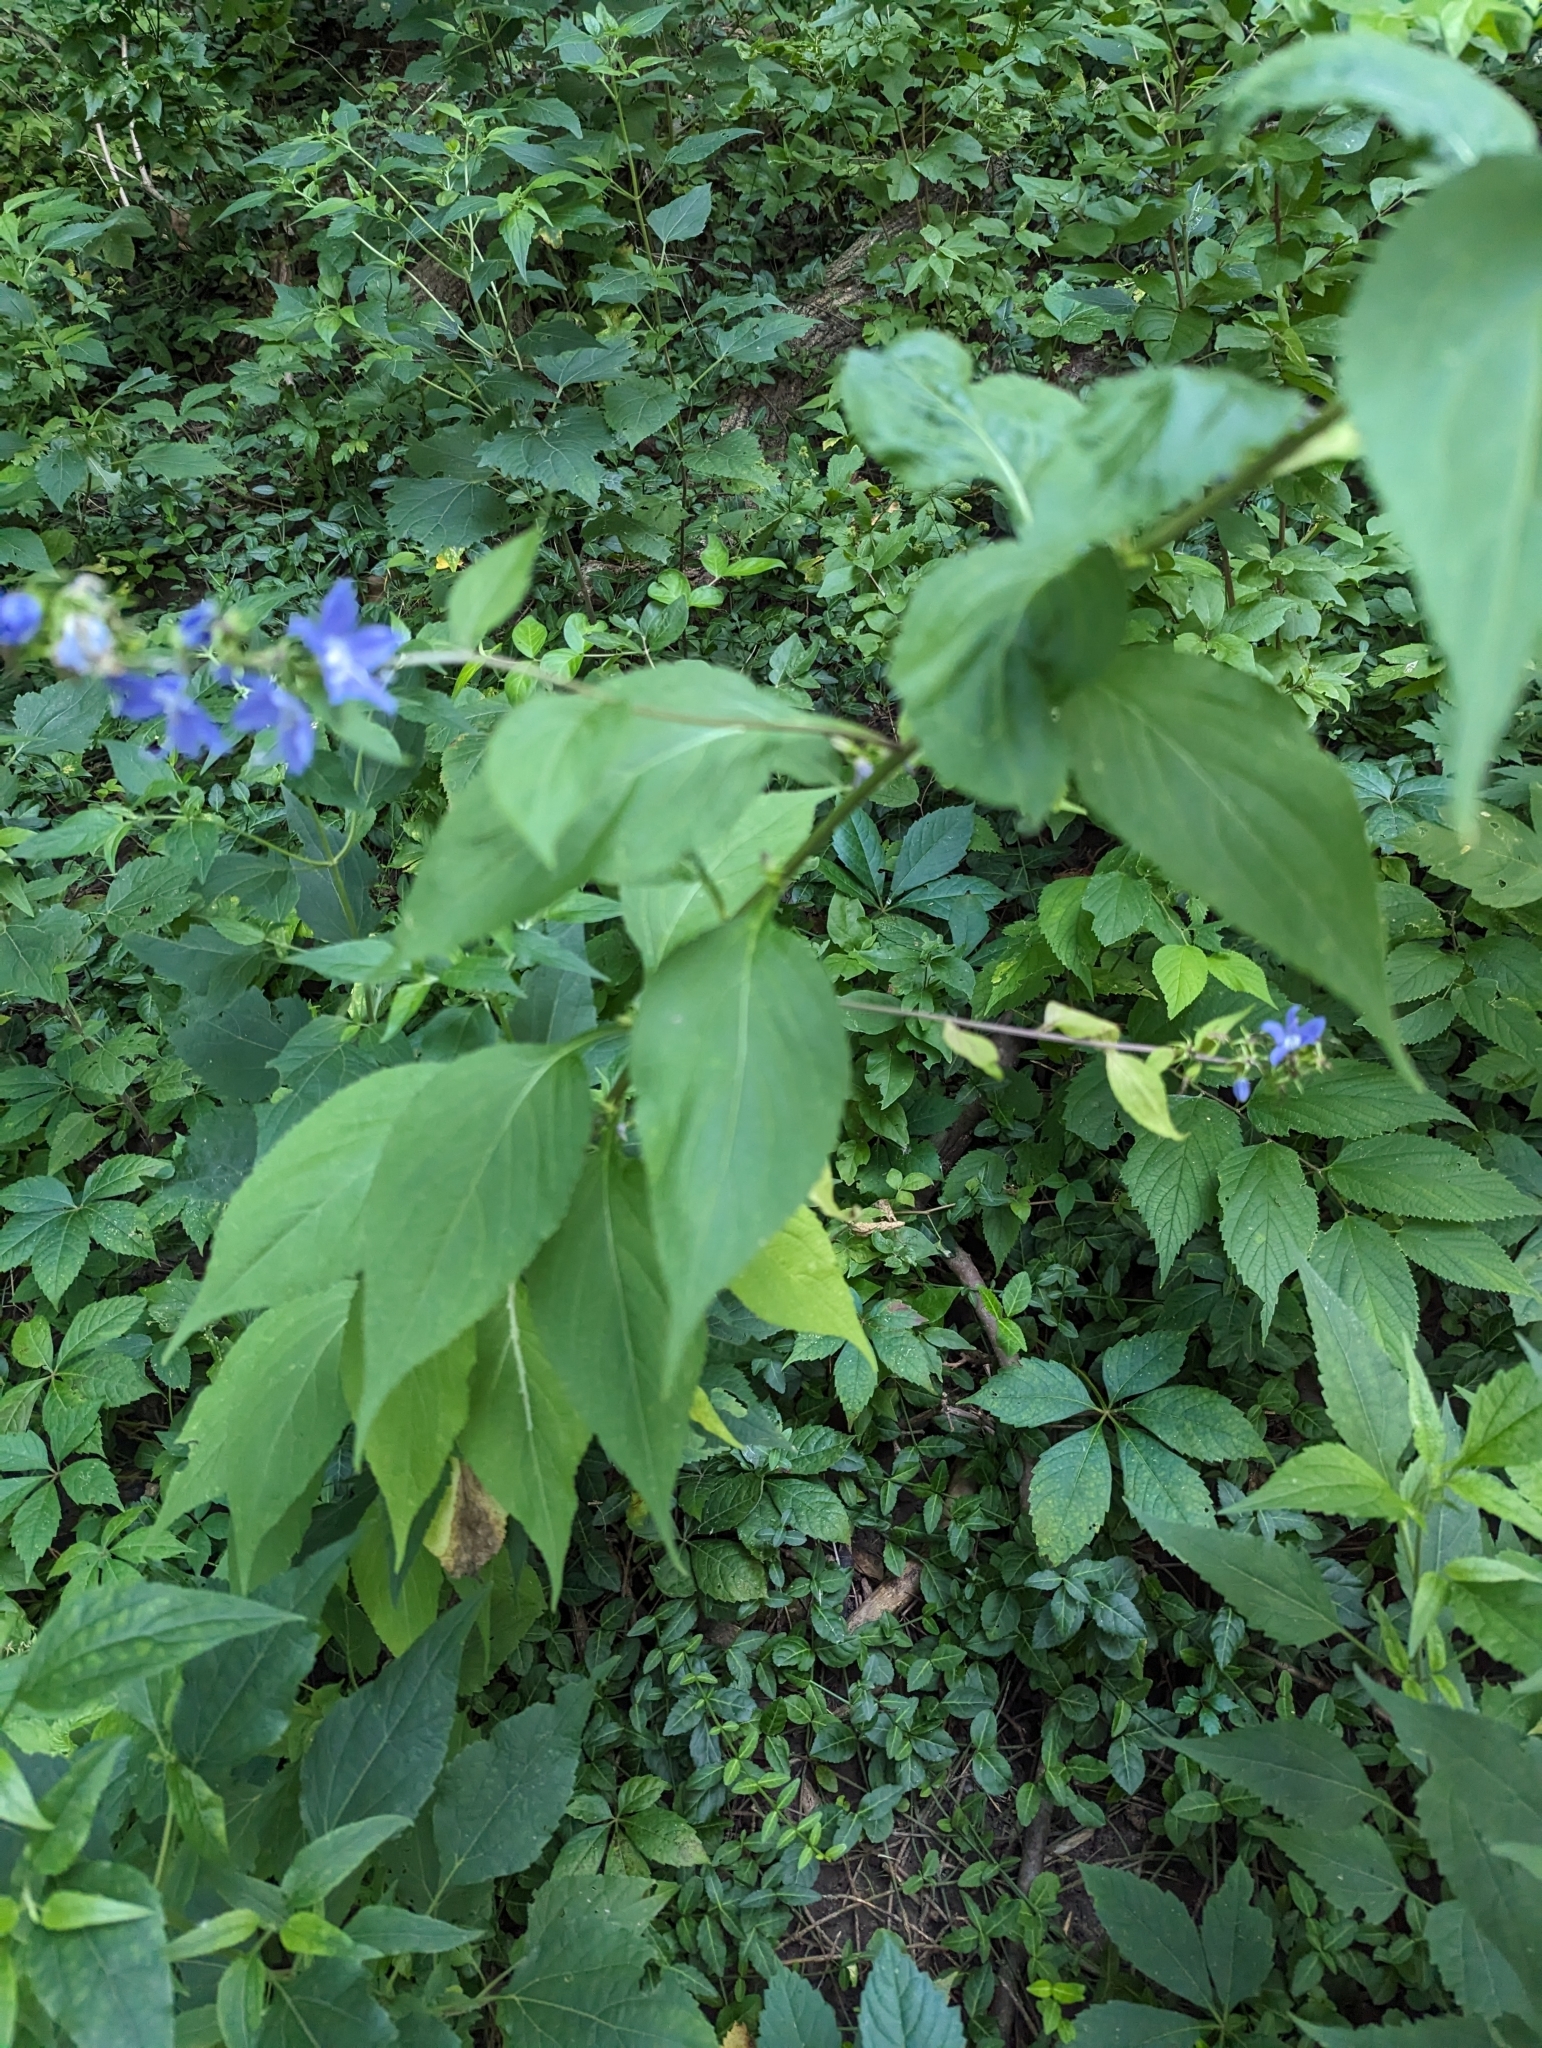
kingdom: Plantae
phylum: Tracheophyta
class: Magnoliopsida
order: Asterales
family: Campanulaceae
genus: Campanulastrum
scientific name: Campanulastrum americanum
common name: American bellflower
